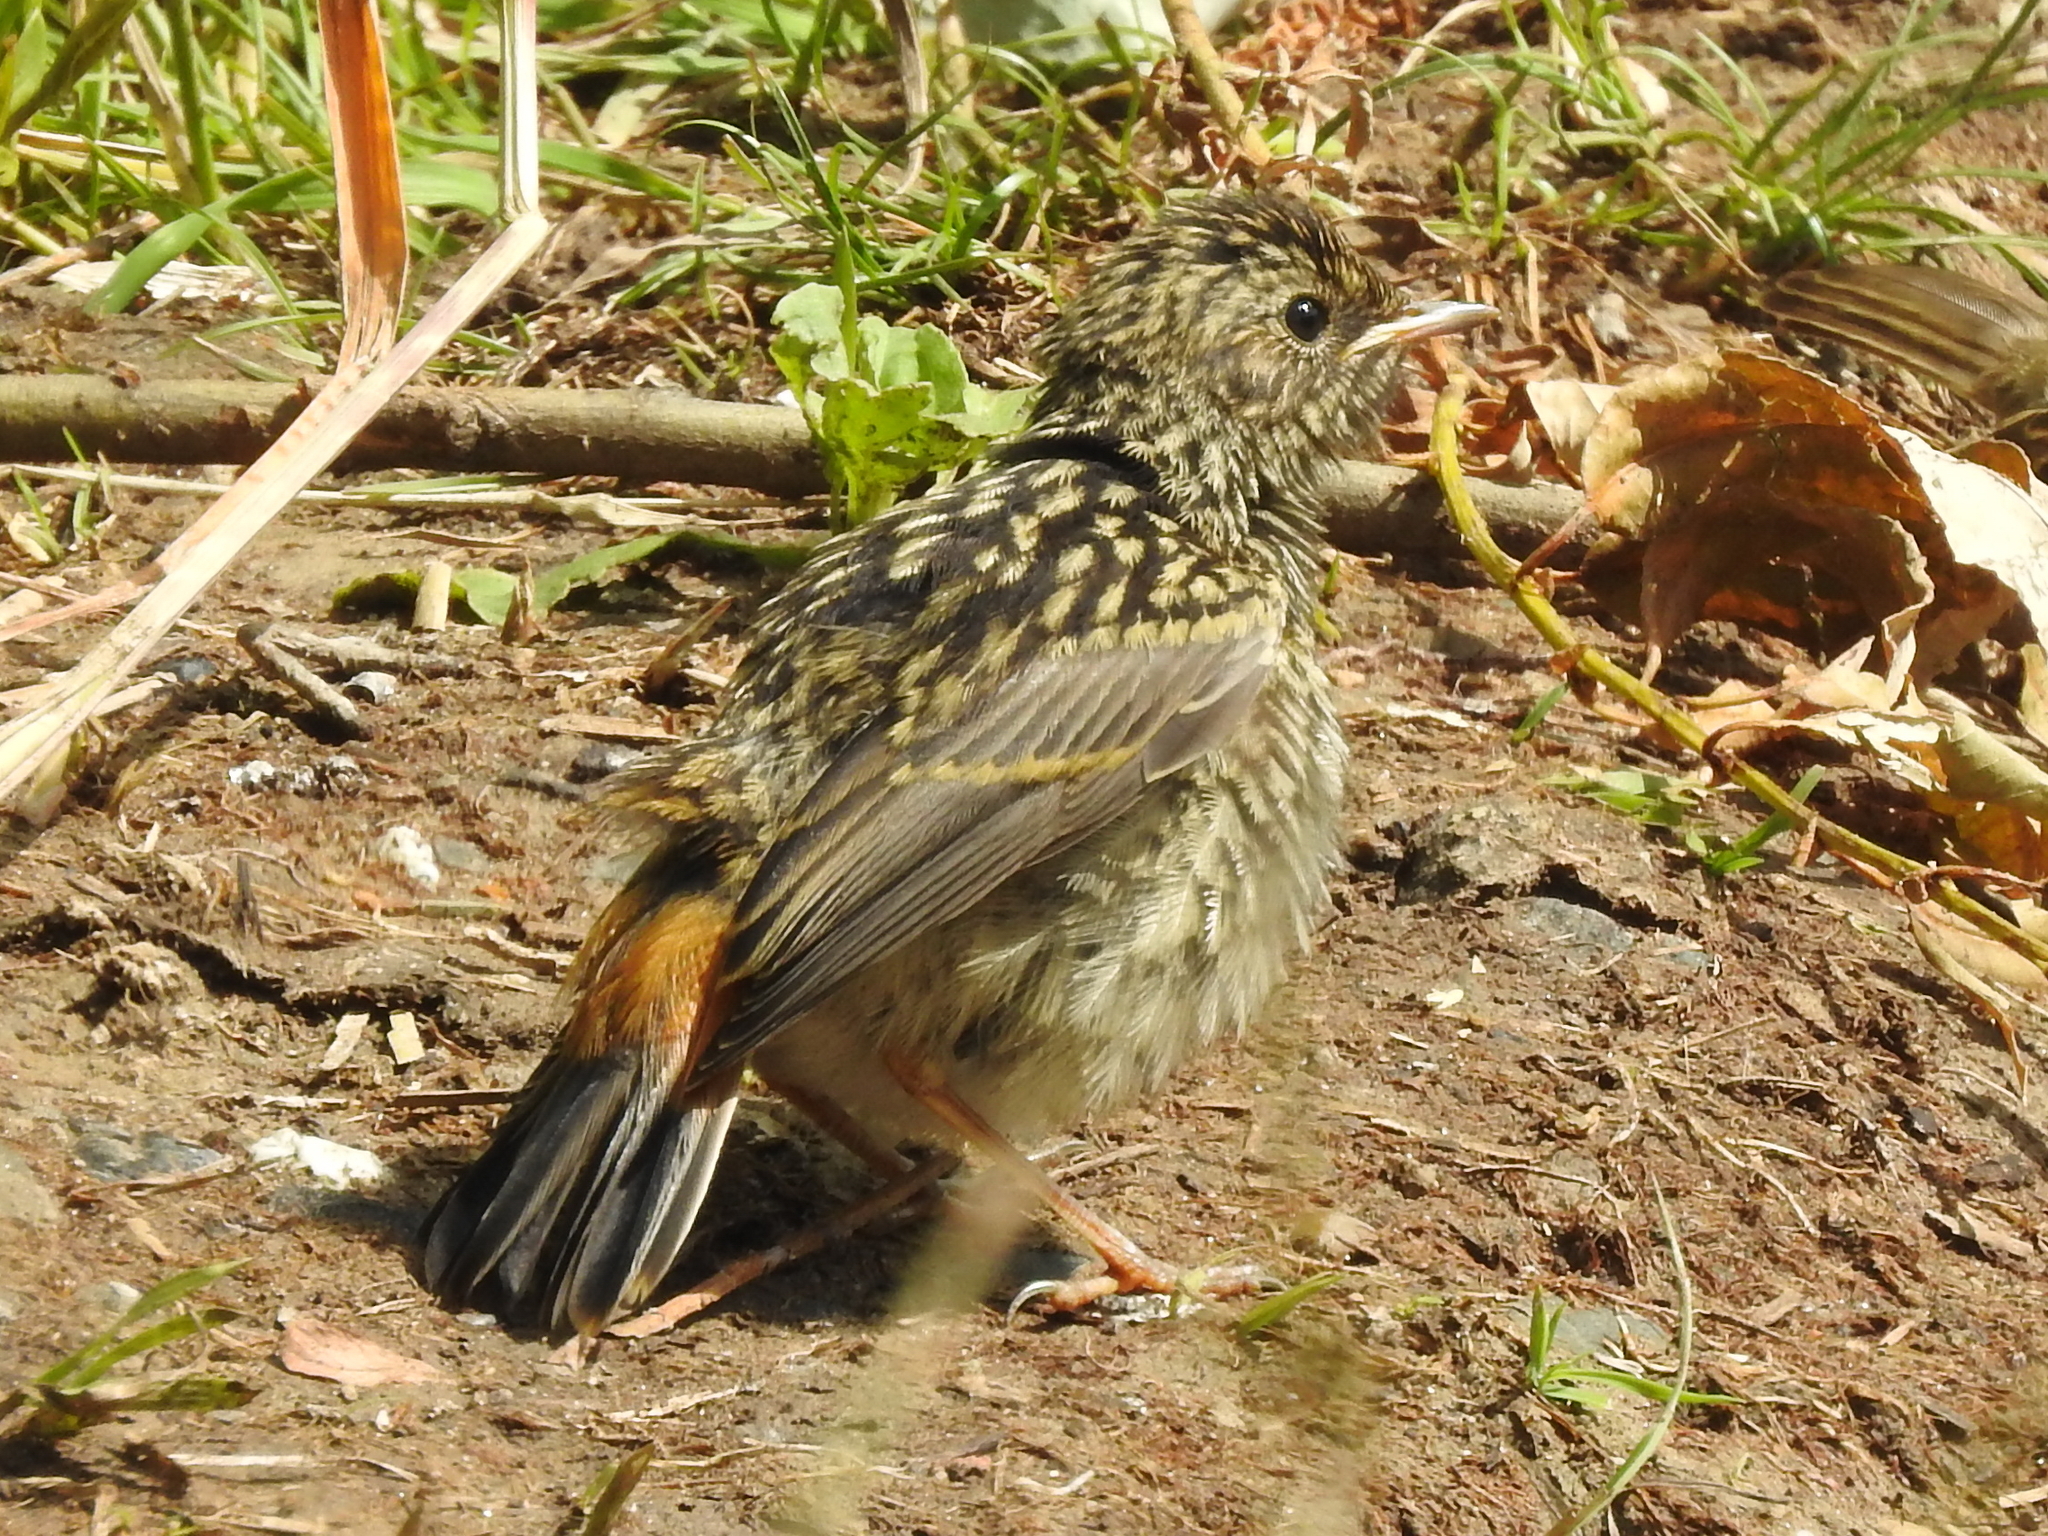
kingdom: Animalia
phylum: Chordata
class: Aves
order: Passeriformes
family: Muscicapidae
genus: Luscinia
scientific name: Luscinia svecica
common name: Bluethroat
